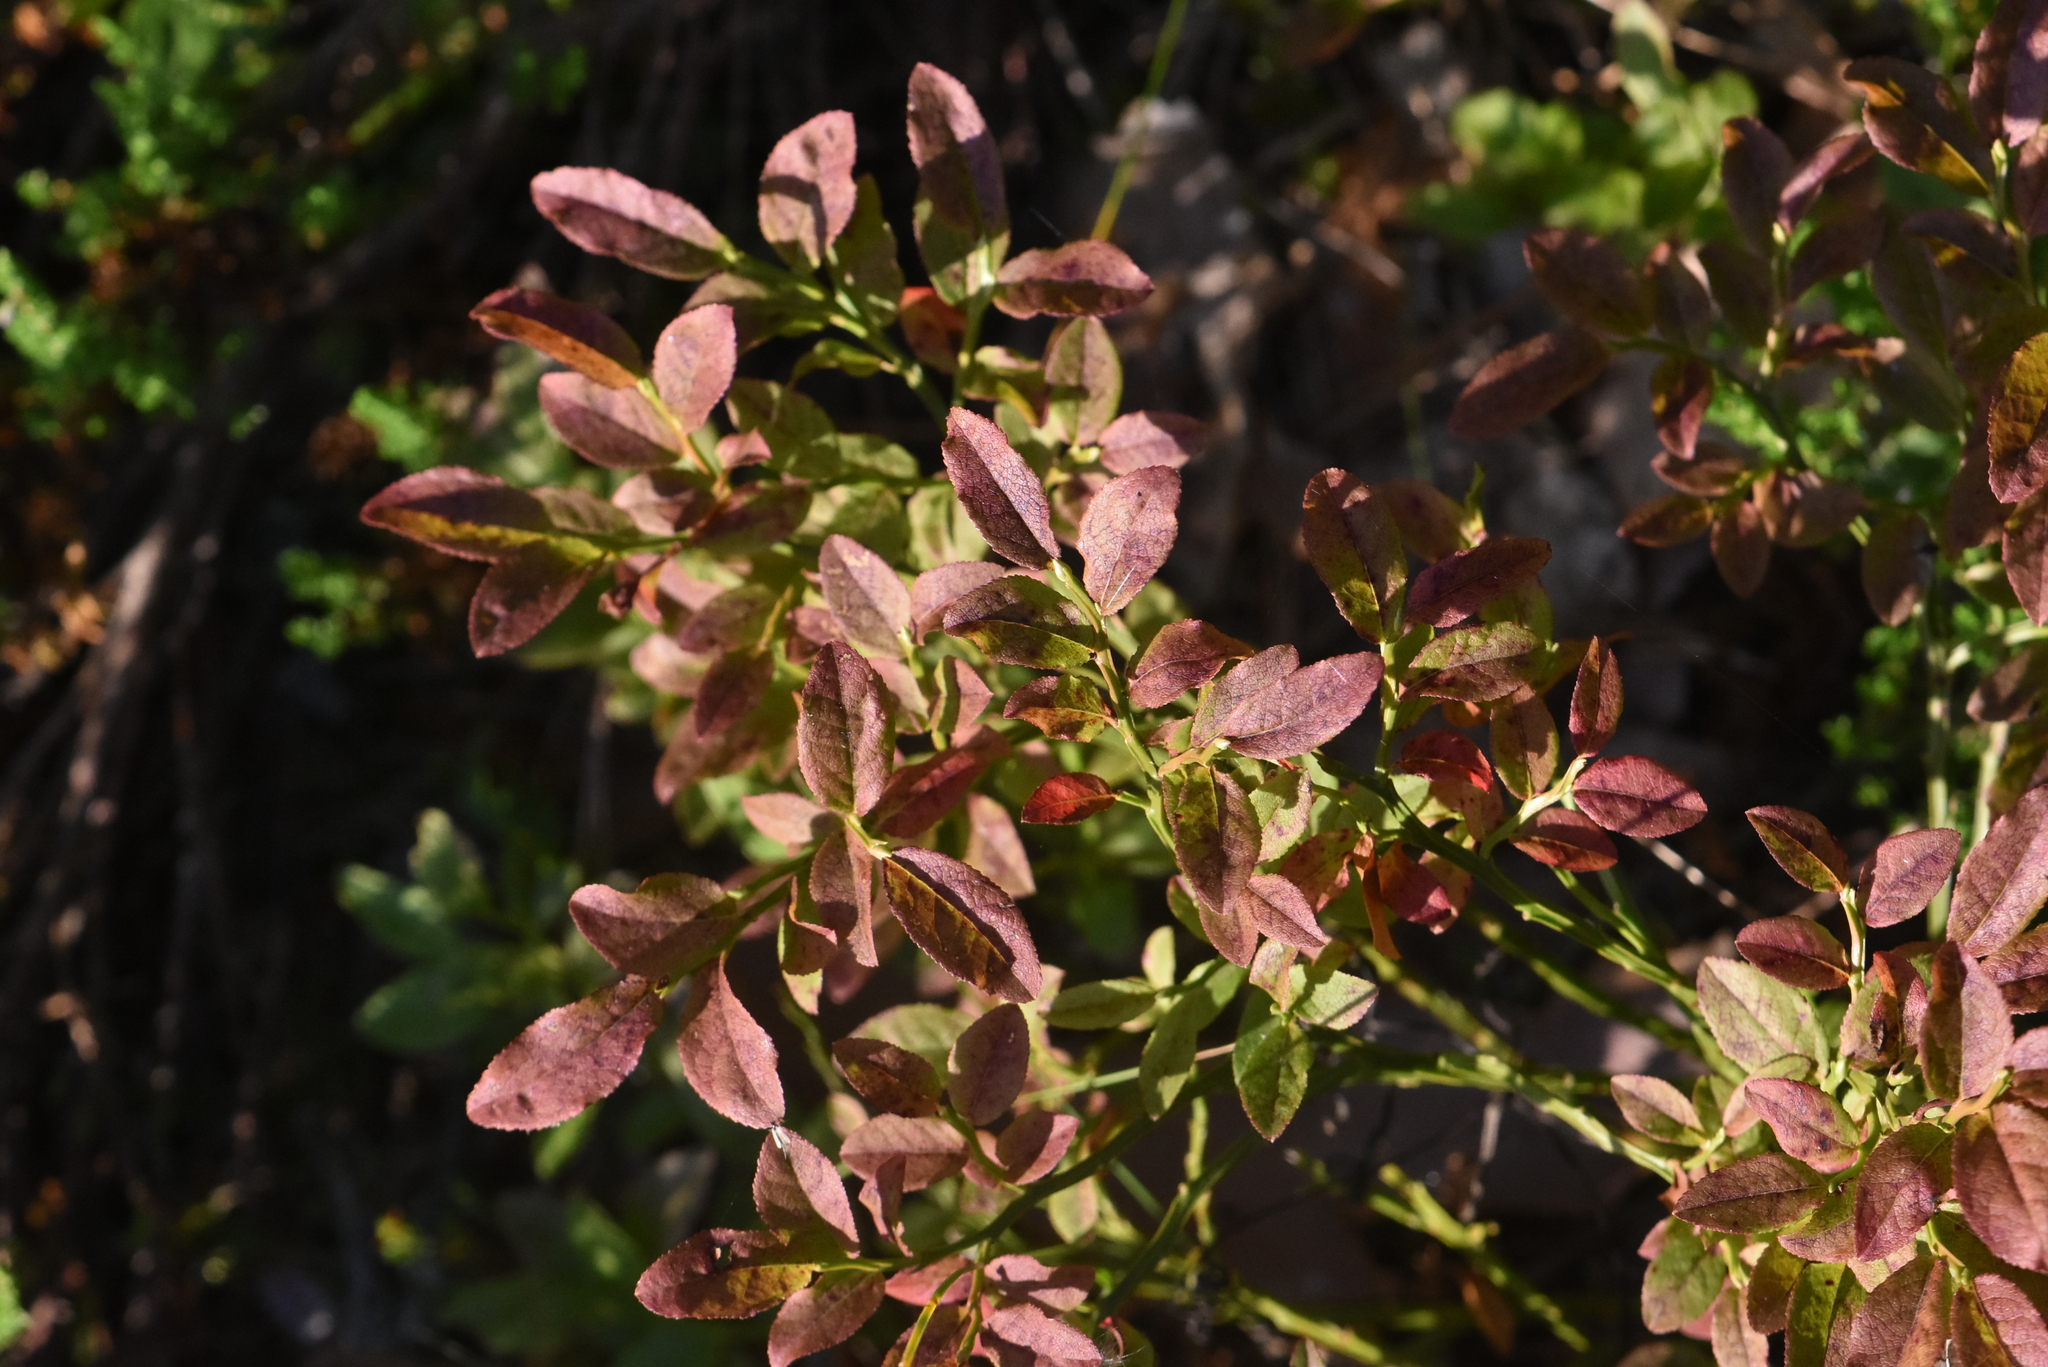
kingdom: Plantae
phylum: Tracheophyta
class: Magnoliopsida
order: Ericales
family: Ericaceae
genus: Vaccinium
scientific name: Vaccinium myrtillus
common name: Bilberry
